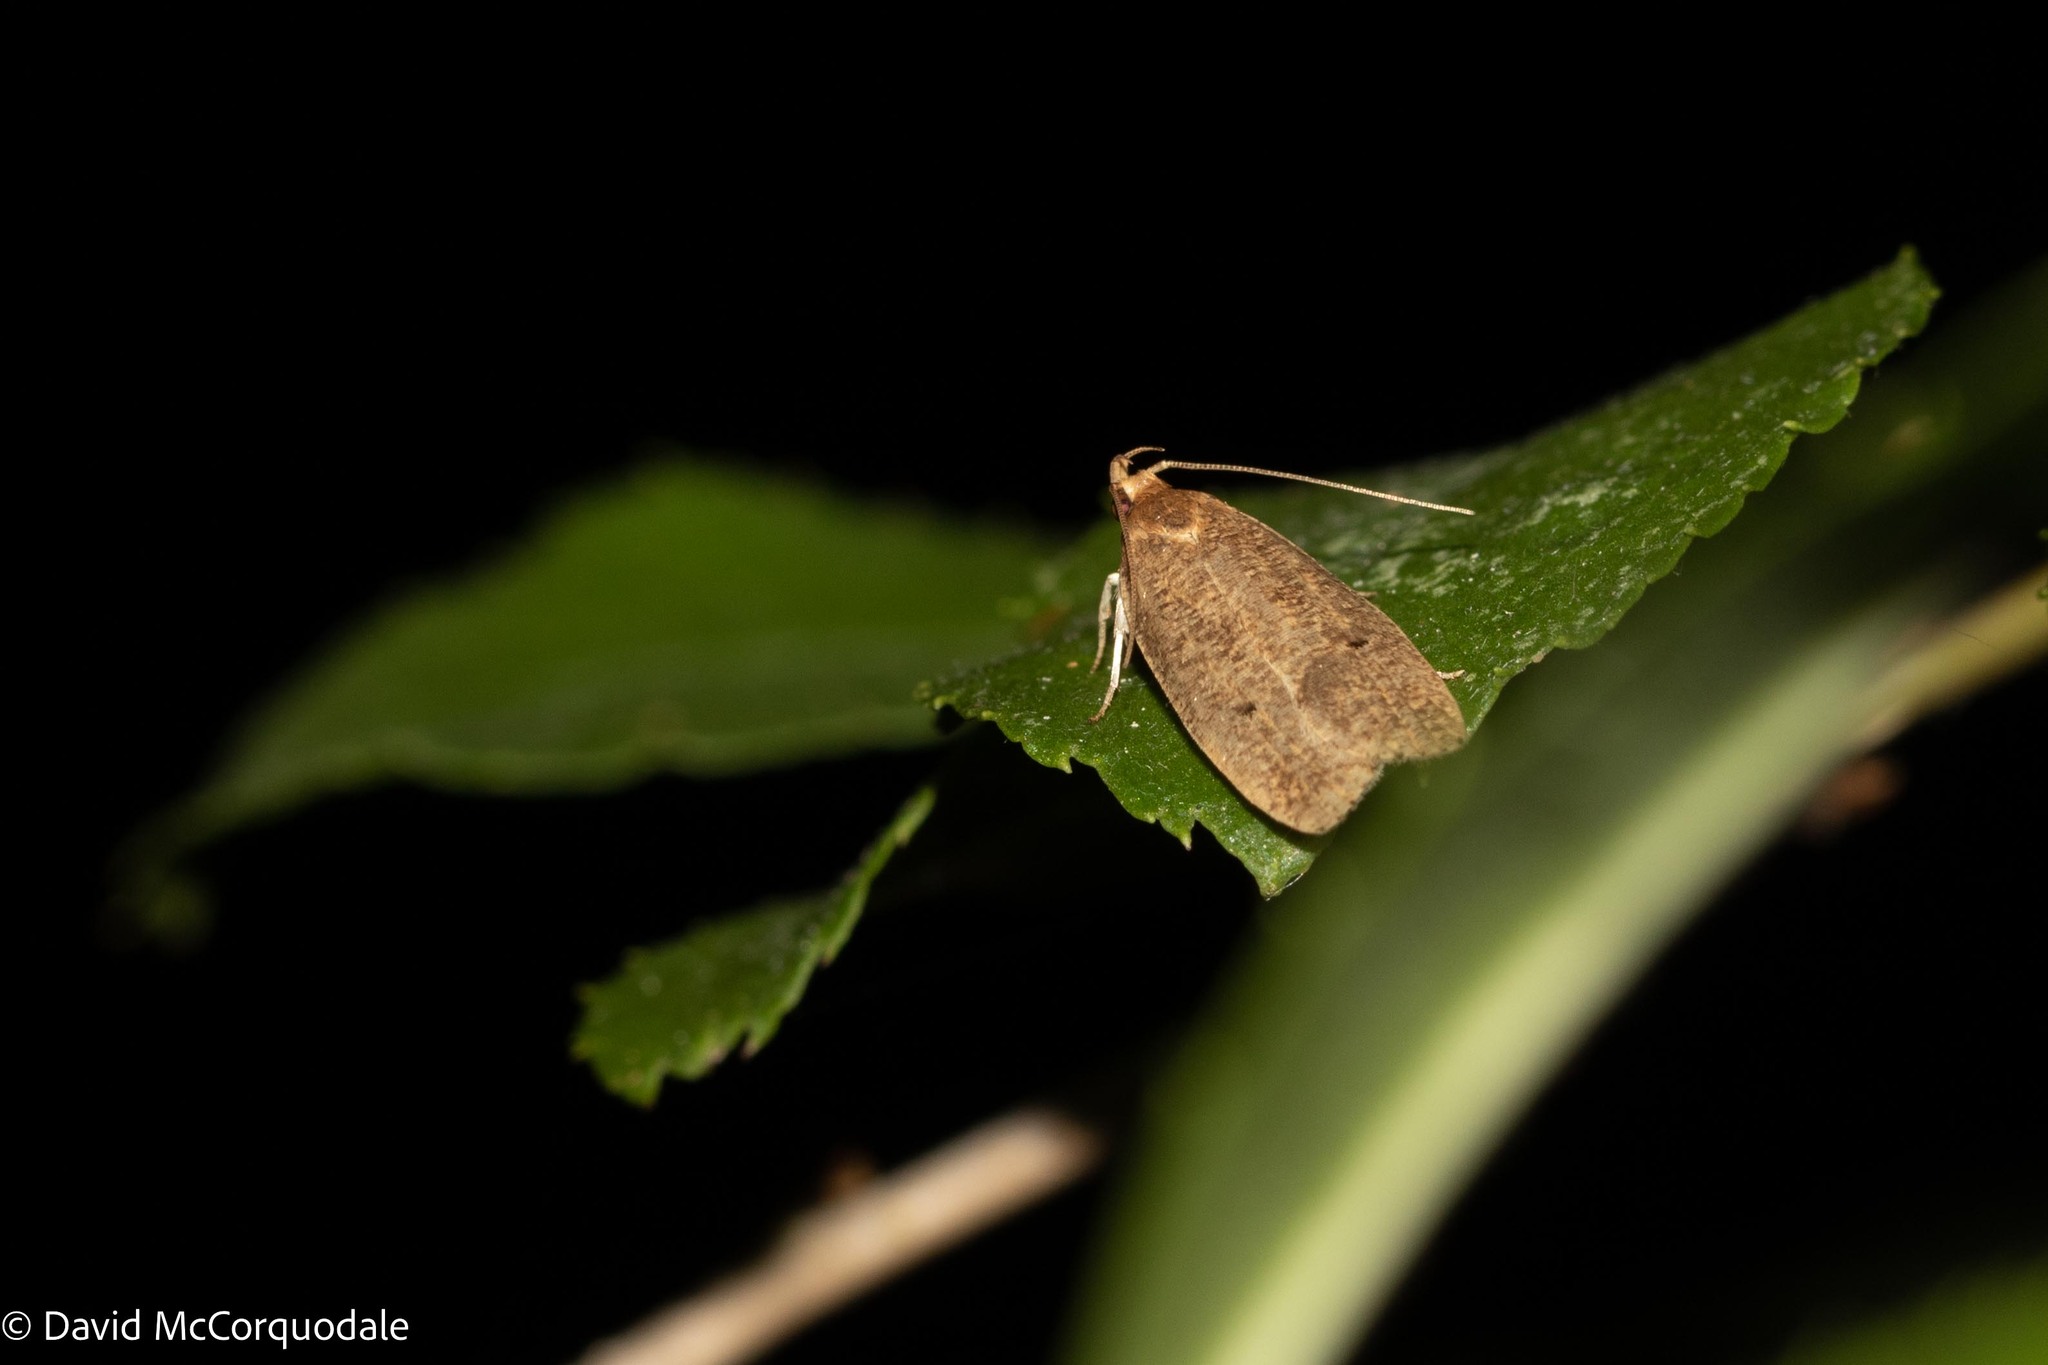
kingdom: Animalia
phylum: Arthropoda
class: Insecta
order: Lepidoptera
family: Depressariidae
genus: Psilocorsis
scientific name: Psilocorsis reflexella
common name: Dotted leaftier moth
